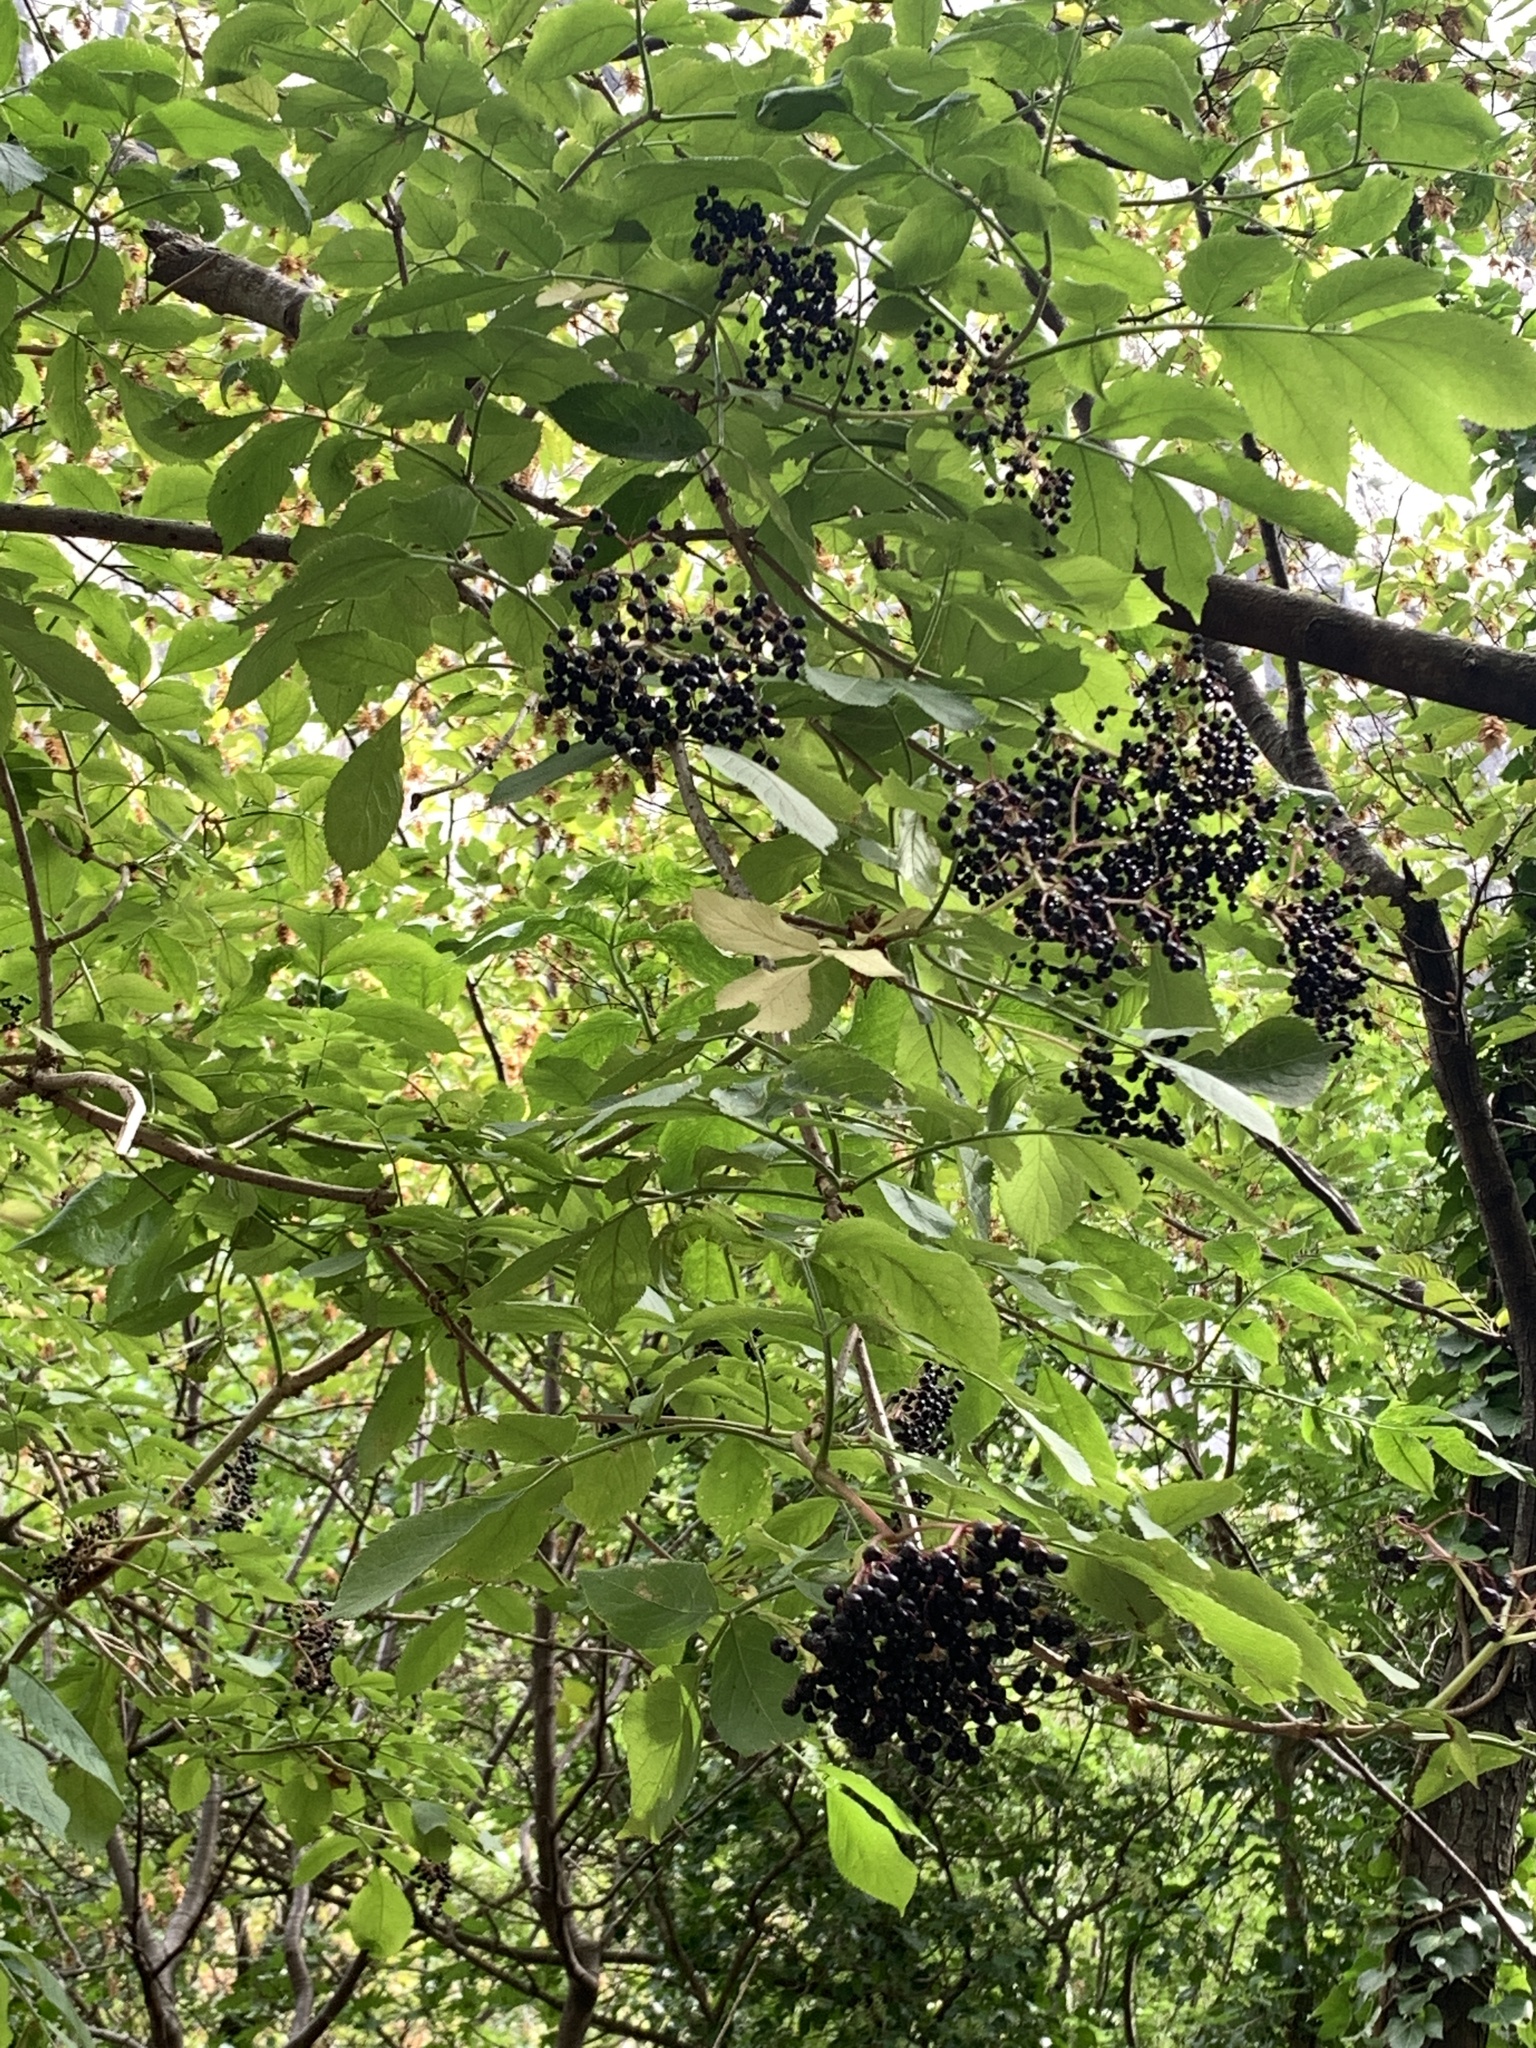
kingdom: Plantae
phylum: Tracheophyta
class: Magnoliopsida
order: Dipsacales
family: Viburnaceae
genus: Sambucus
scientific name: Sambucus nigra
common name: Elder
